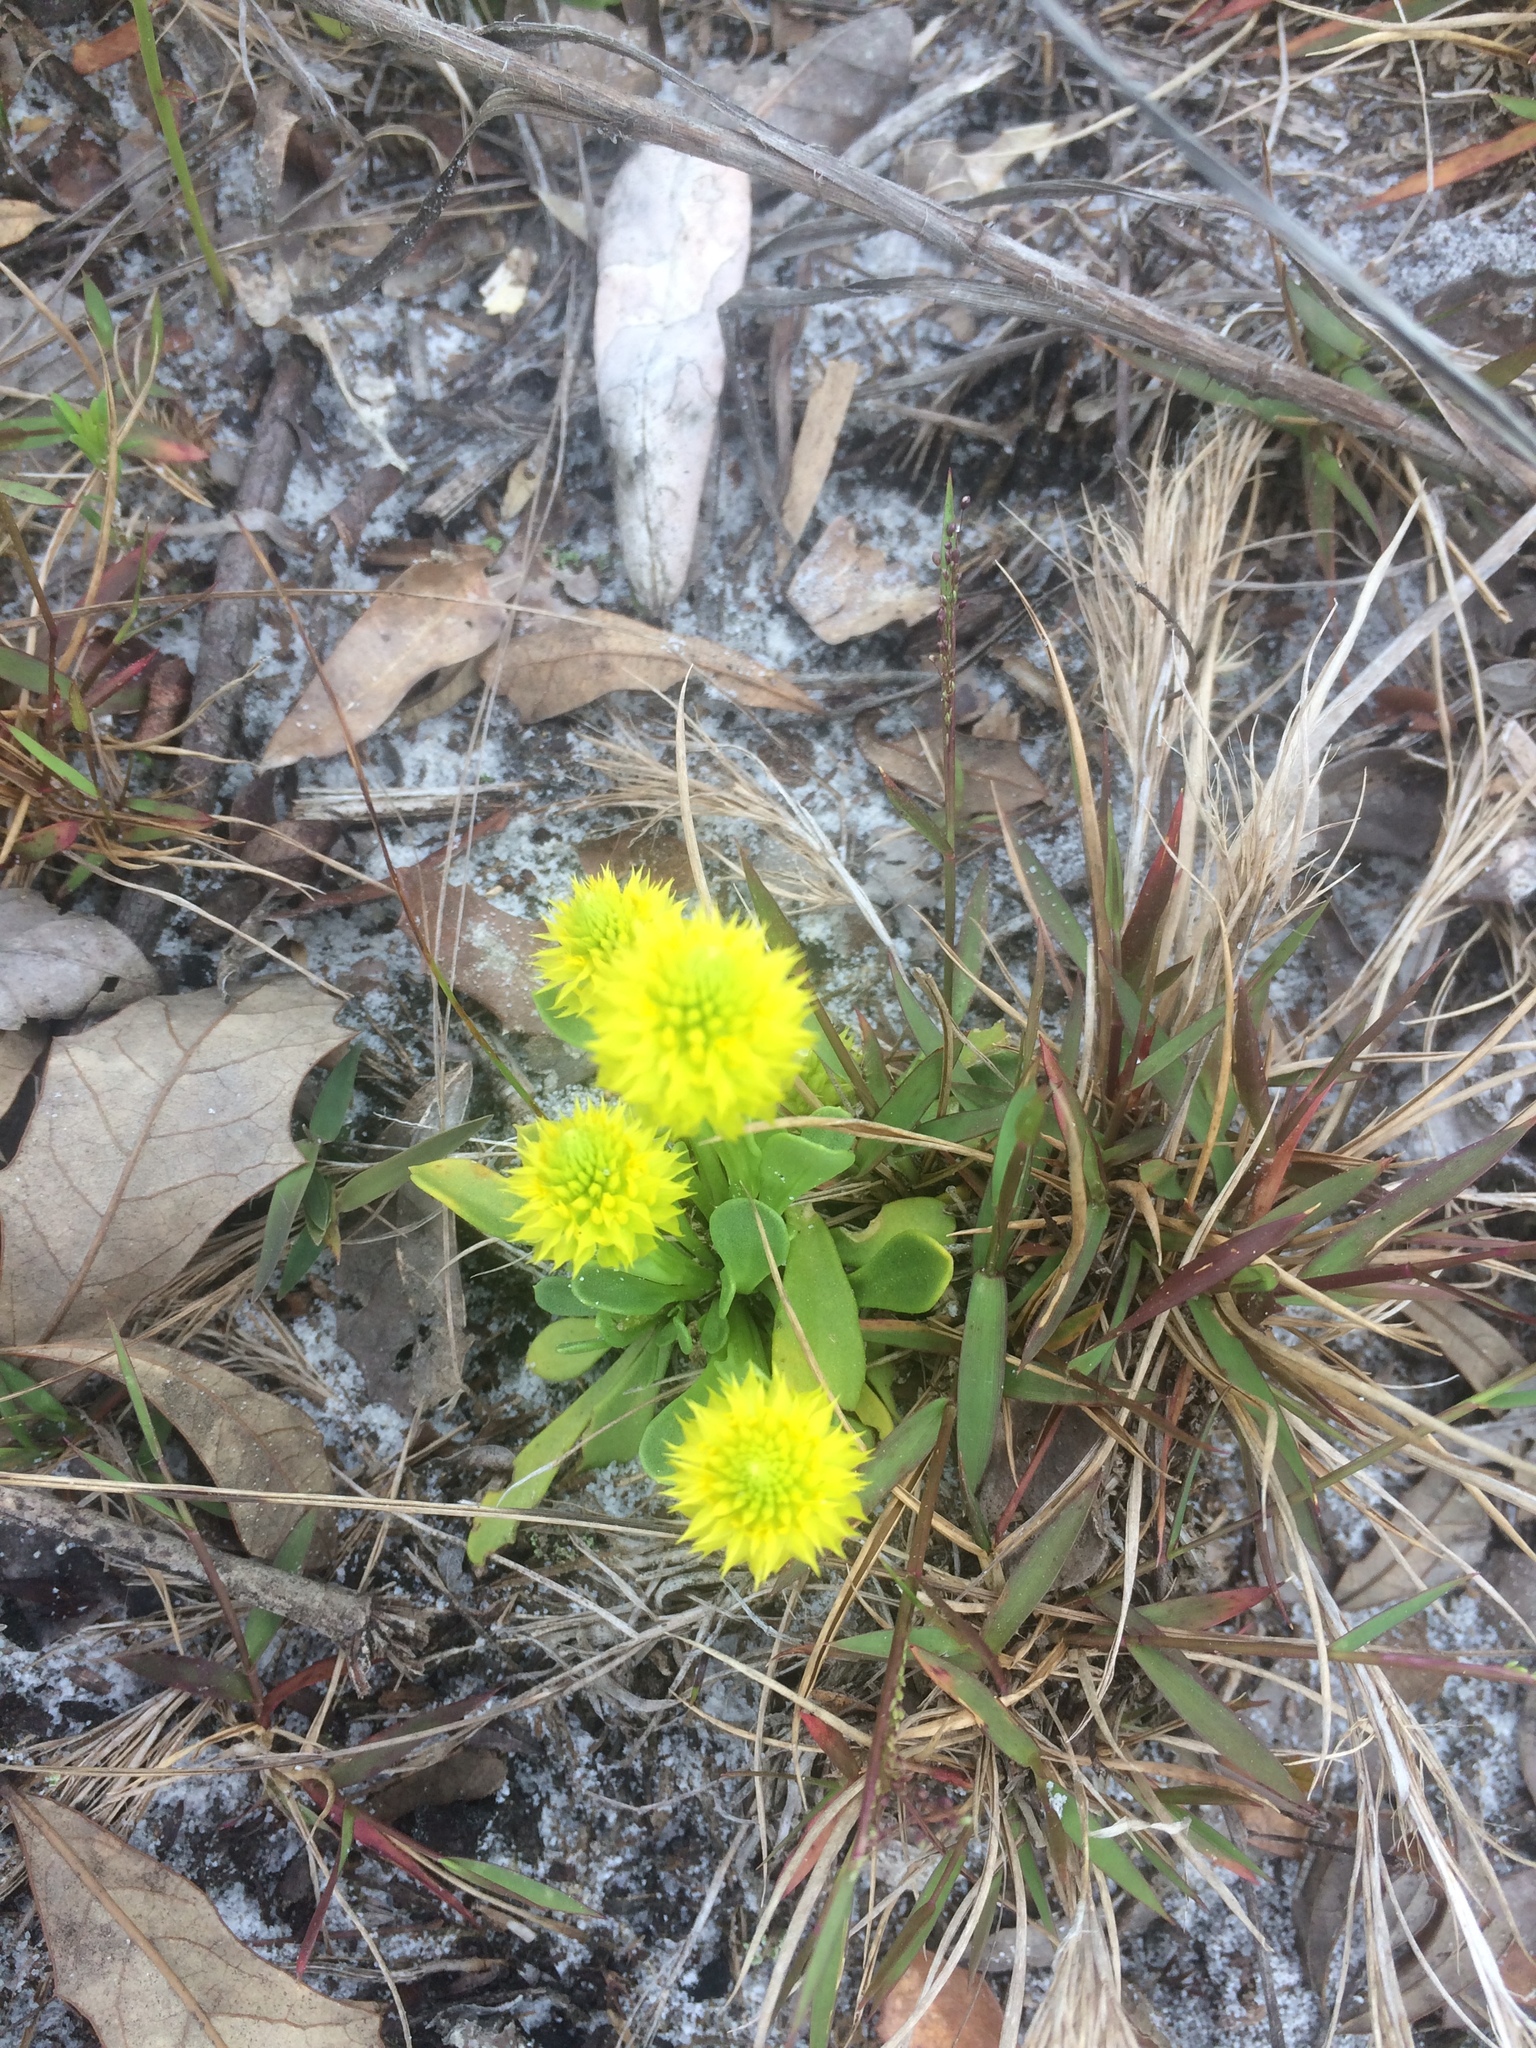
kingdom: Plantae
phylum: Tracheophyta
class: Magnoliopsida
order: Fabales
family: Polygalaceae
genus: Polygala
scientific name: Polygala nana
